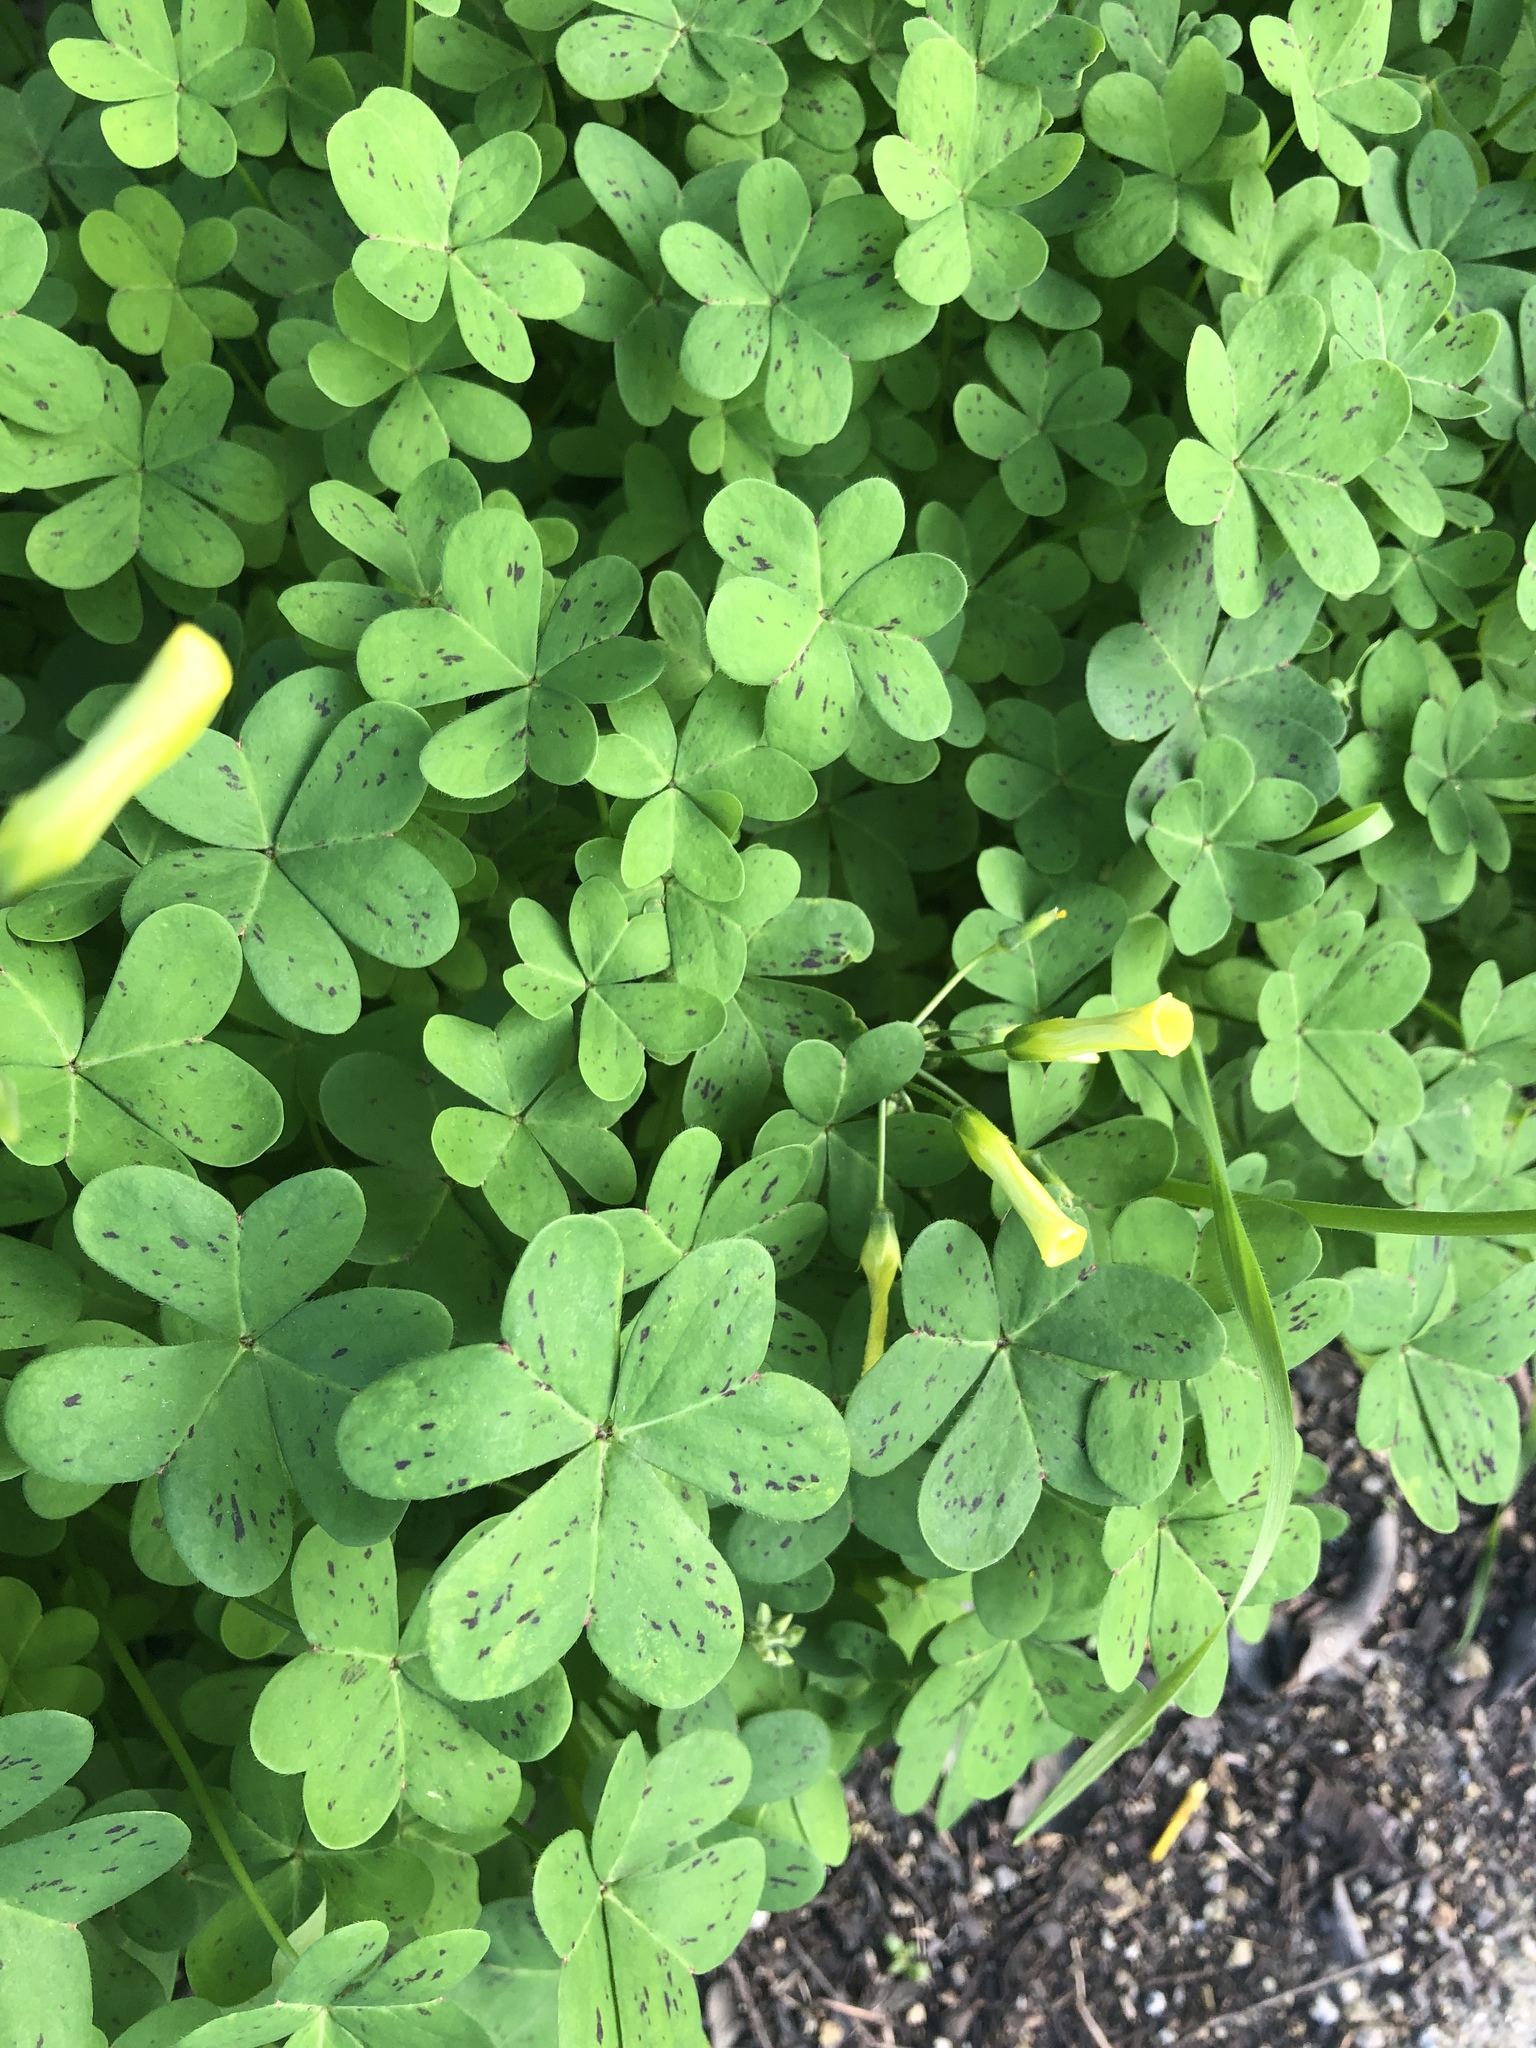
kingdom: Plantae
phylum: Tracheophyta
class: Magnoliopsida
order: Oxalidales
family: Oxalidaceae
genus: Oxalis
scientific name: Oxalis pes-caprae
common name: Bermuda-buttercup
